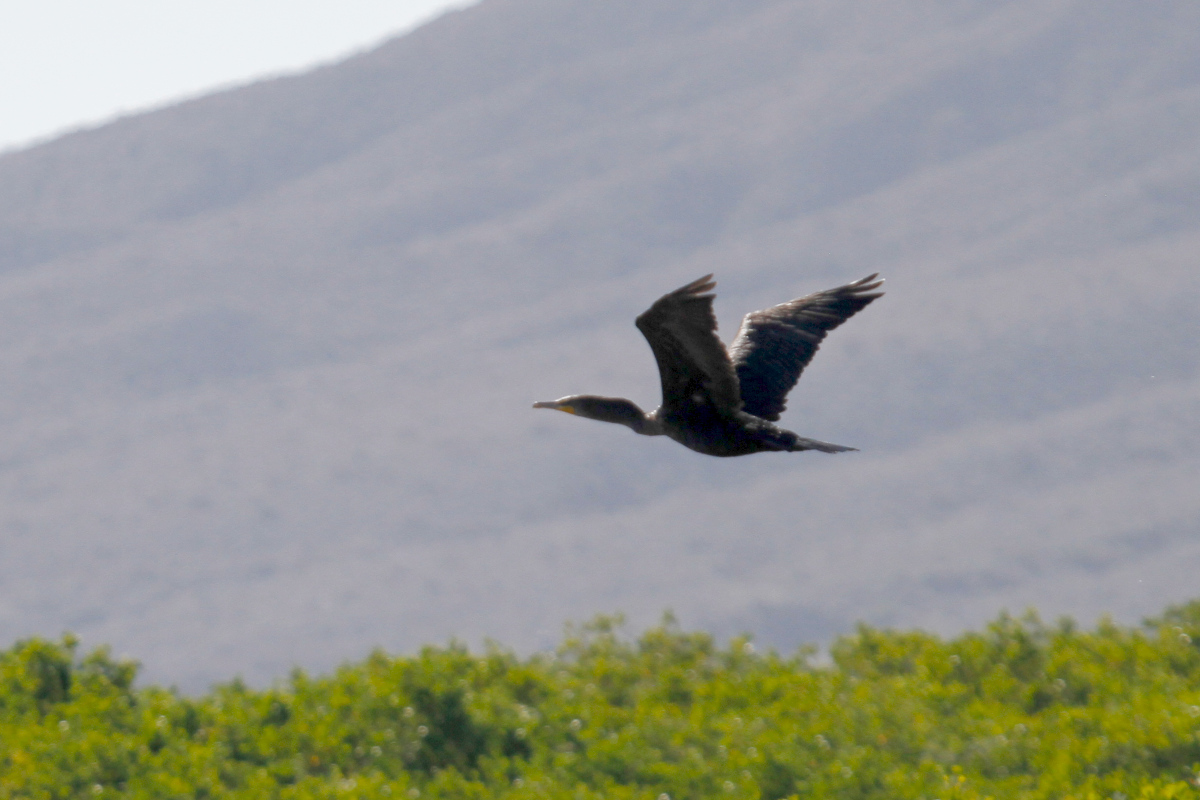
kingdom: Animalia
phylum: Chordata
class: Aves
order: Suliformes
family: Phalacrocoracidae
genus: Phalacrocorax
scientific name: Phalacrocorax auritus
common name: Double-crested cormorant
